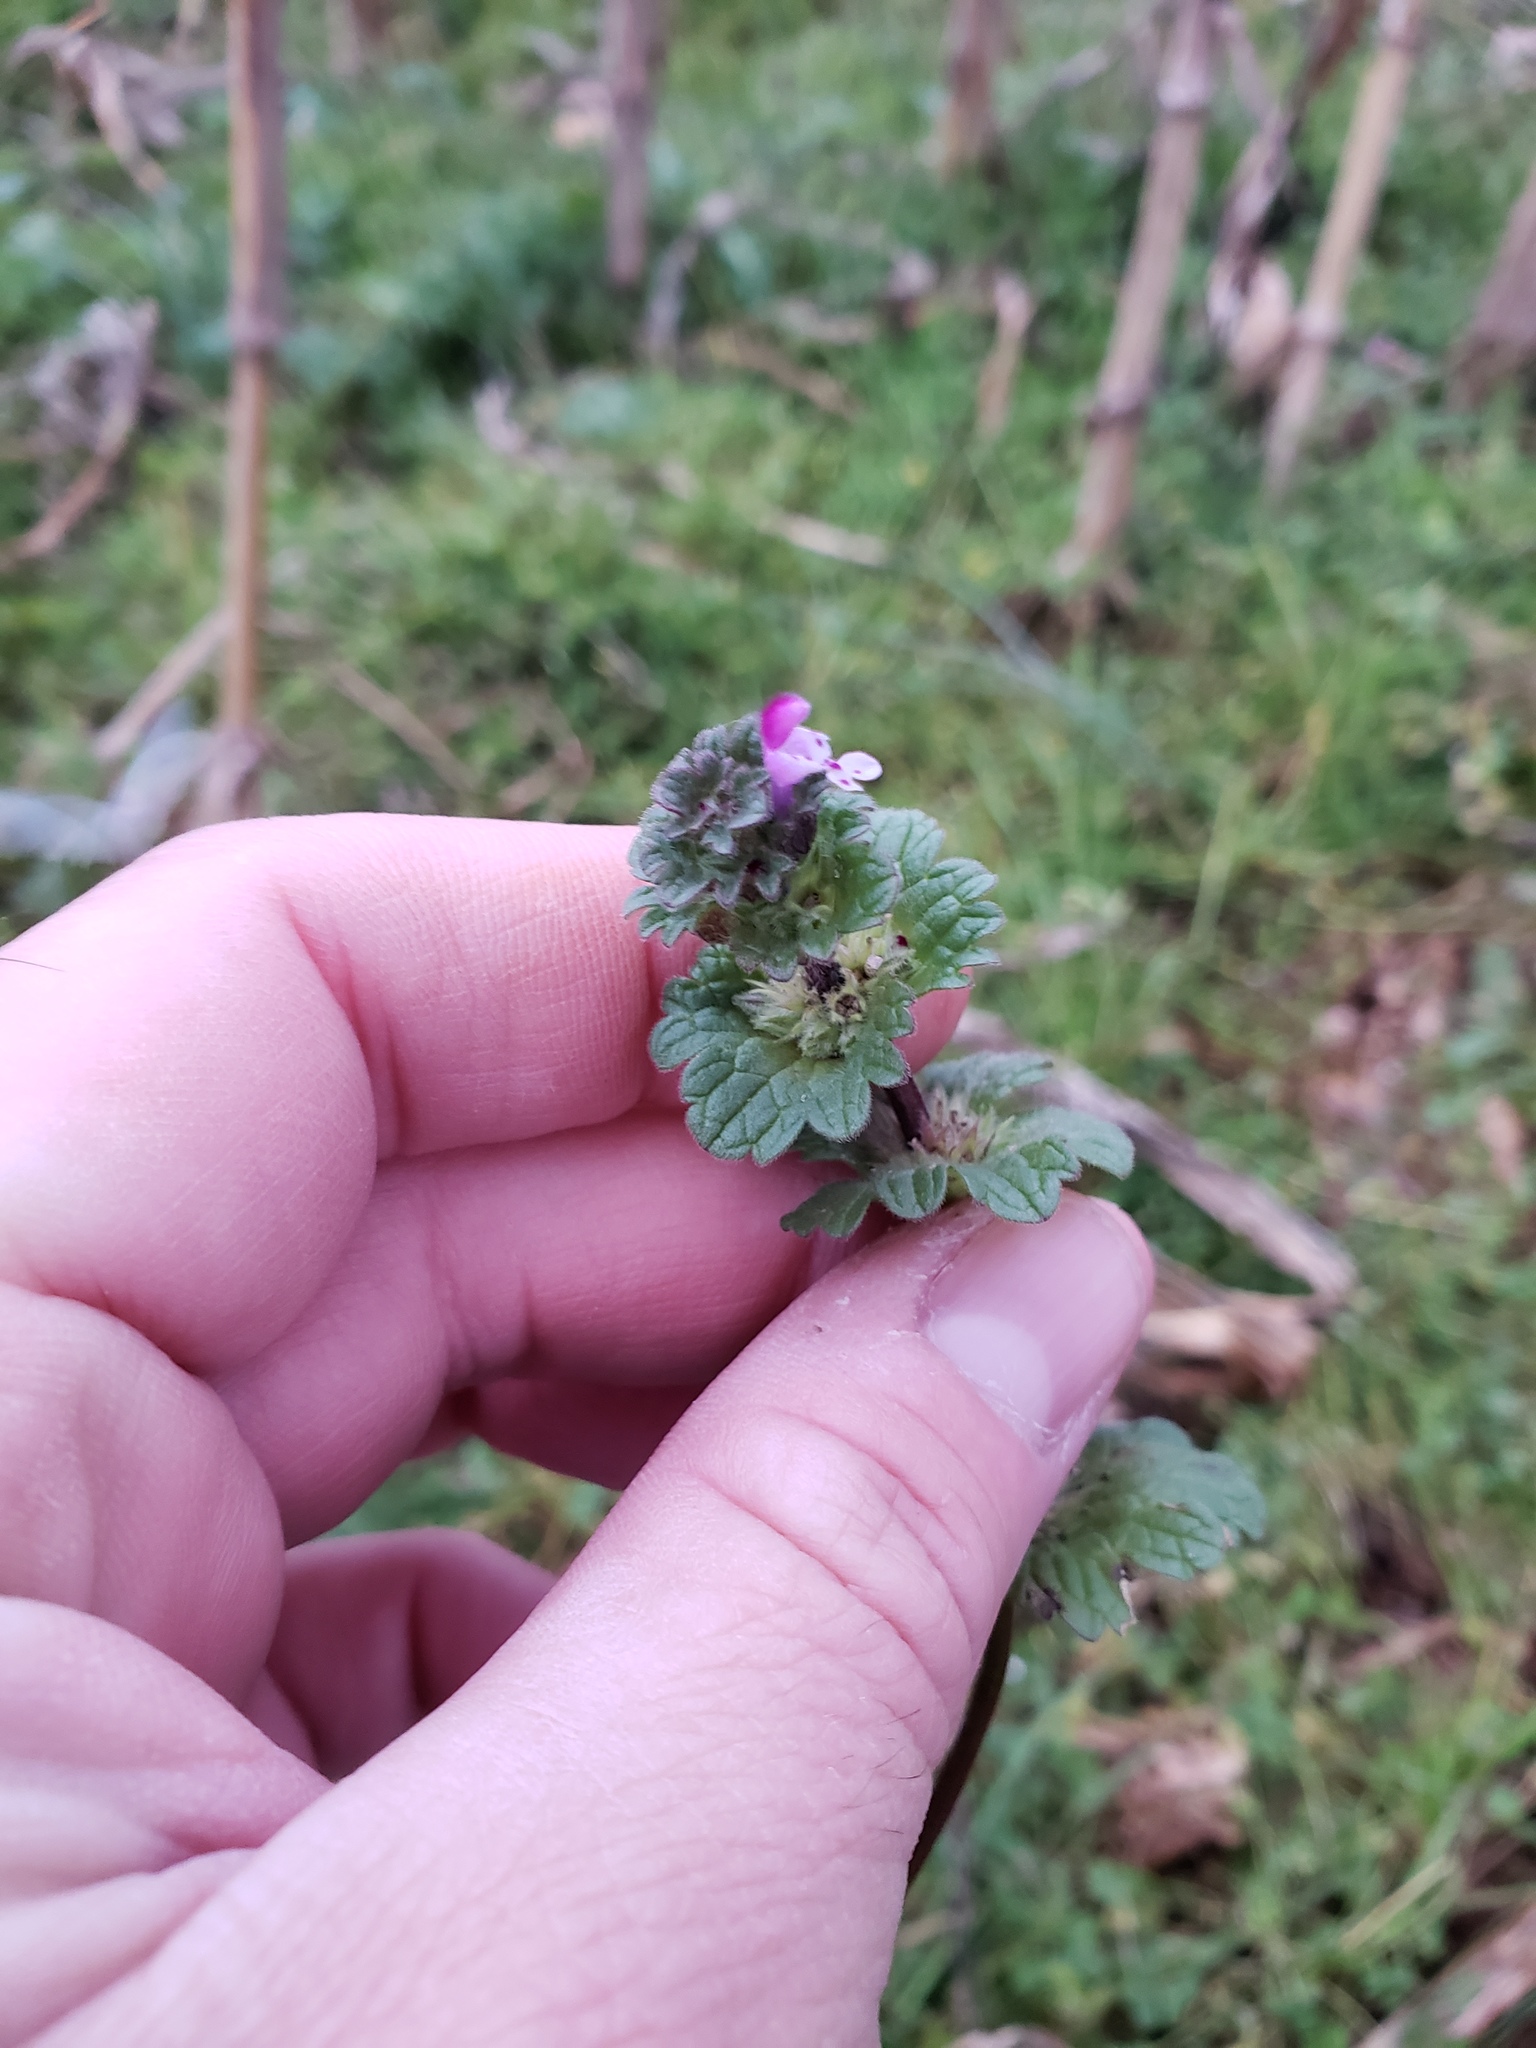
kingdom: Plantae
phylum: Tracheophyta
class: Magnoliopsida
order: Lamiales
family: Lamiaceae
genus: Lamium
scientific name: Lamium amplexicaule
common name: Henbit dead-nettle
